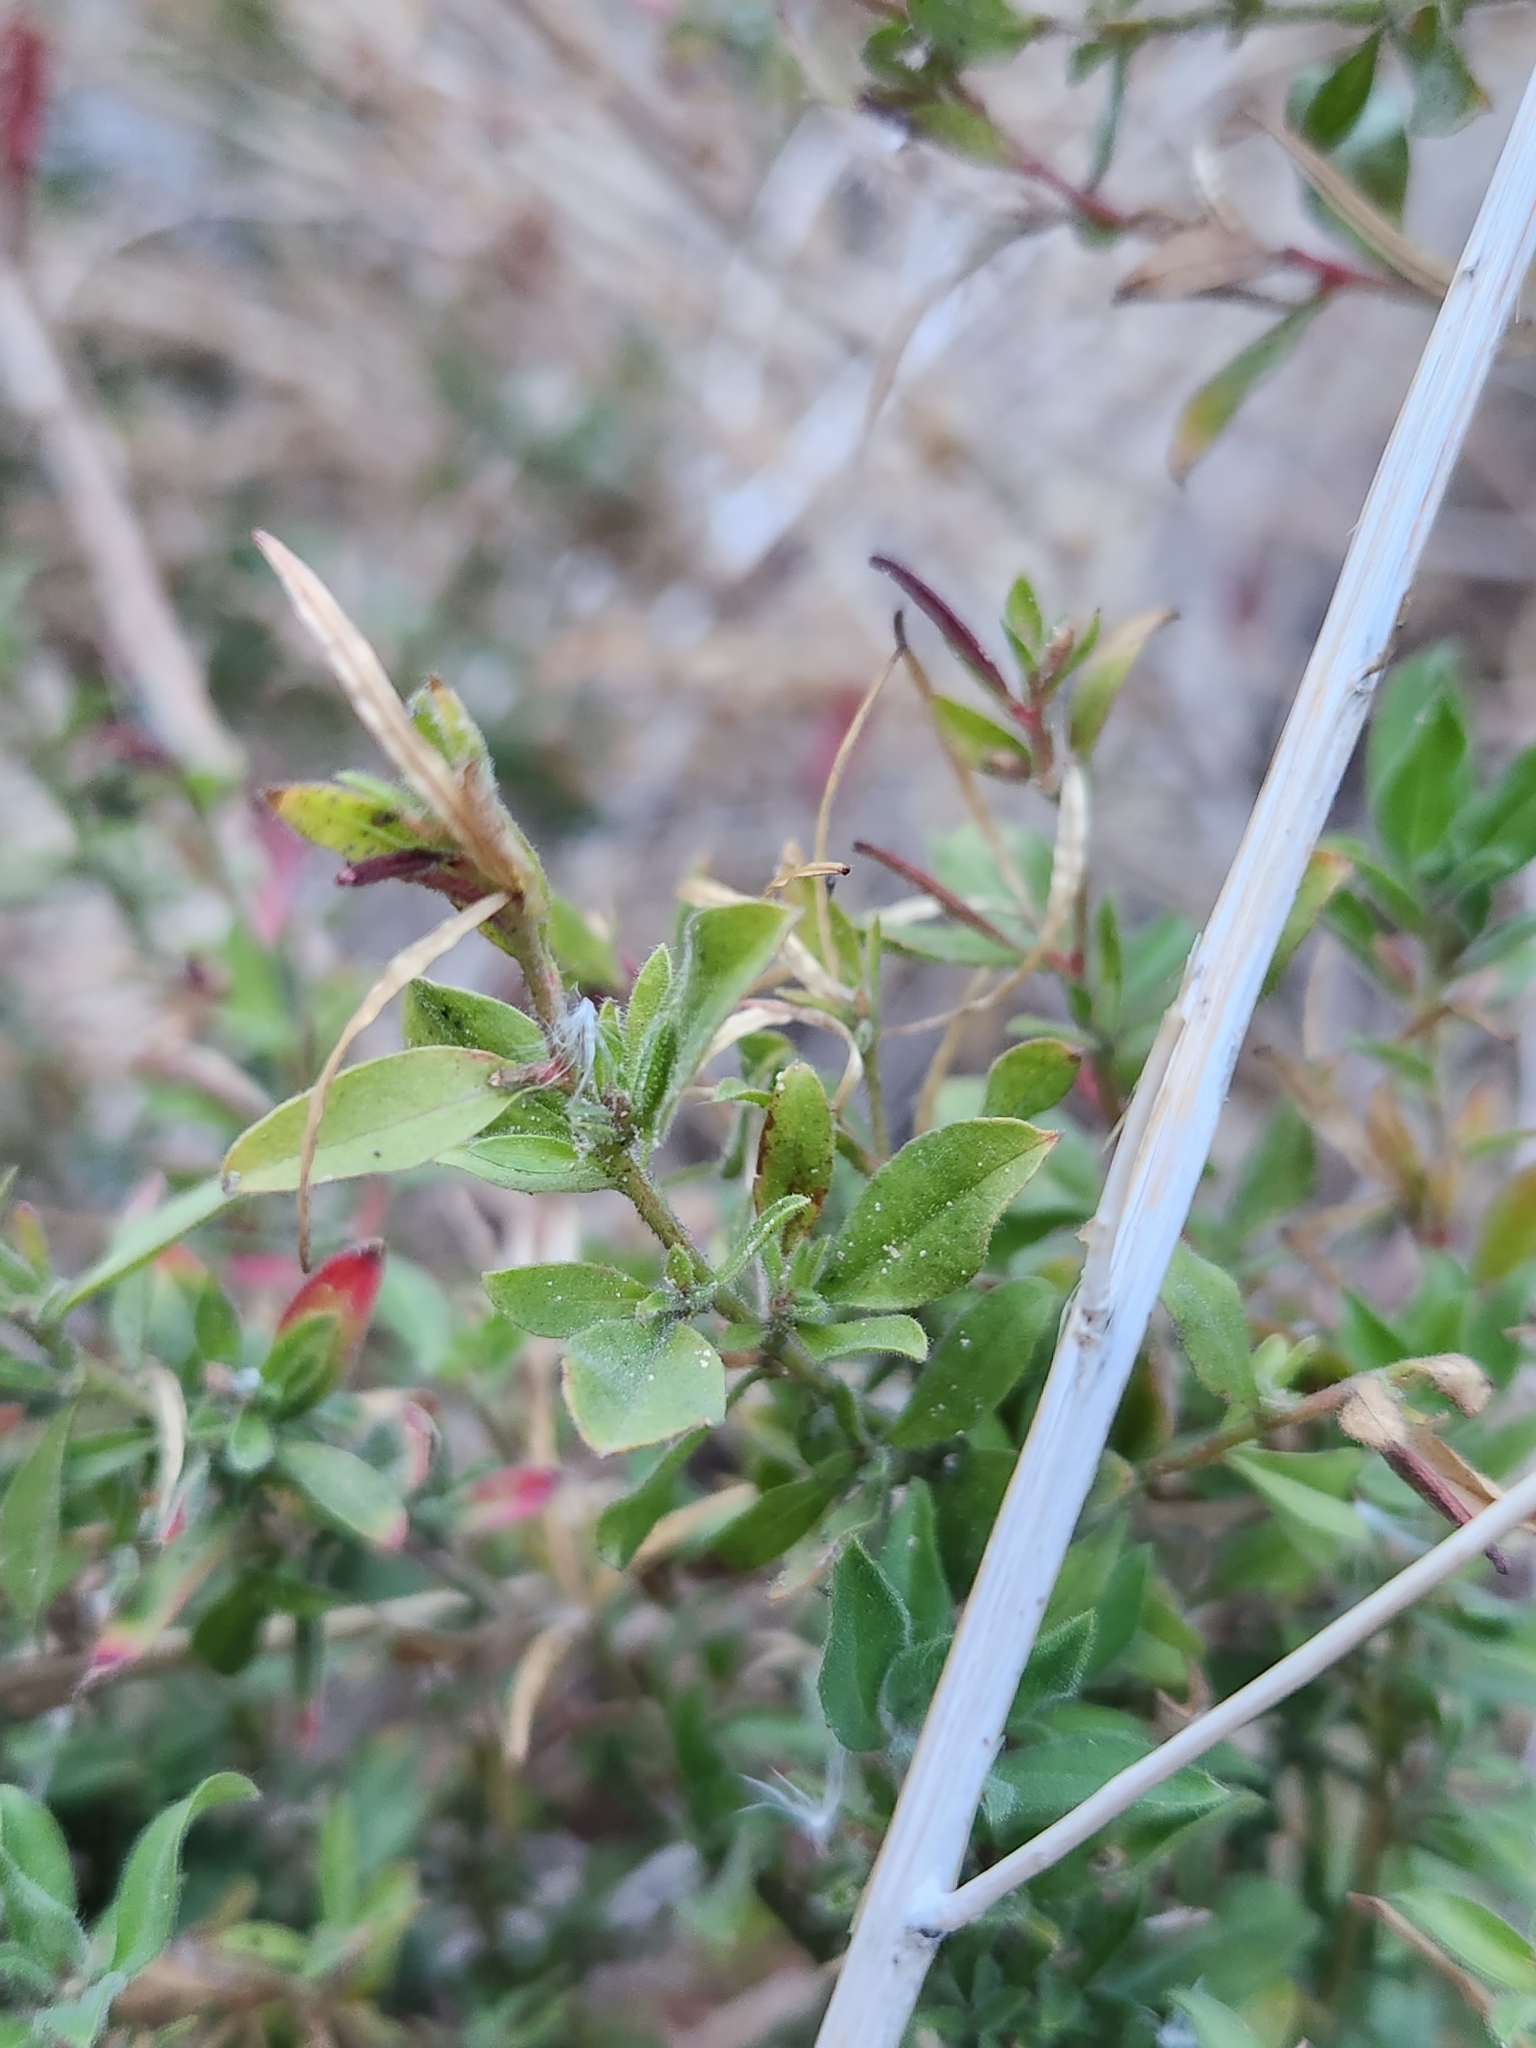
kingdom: Plantae
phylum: Tracheophyta
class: Magnoliopsida
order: Myrtales
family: Onagraceae
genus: Epilobium
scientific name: Epilobium canum
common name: California-fuchsia
